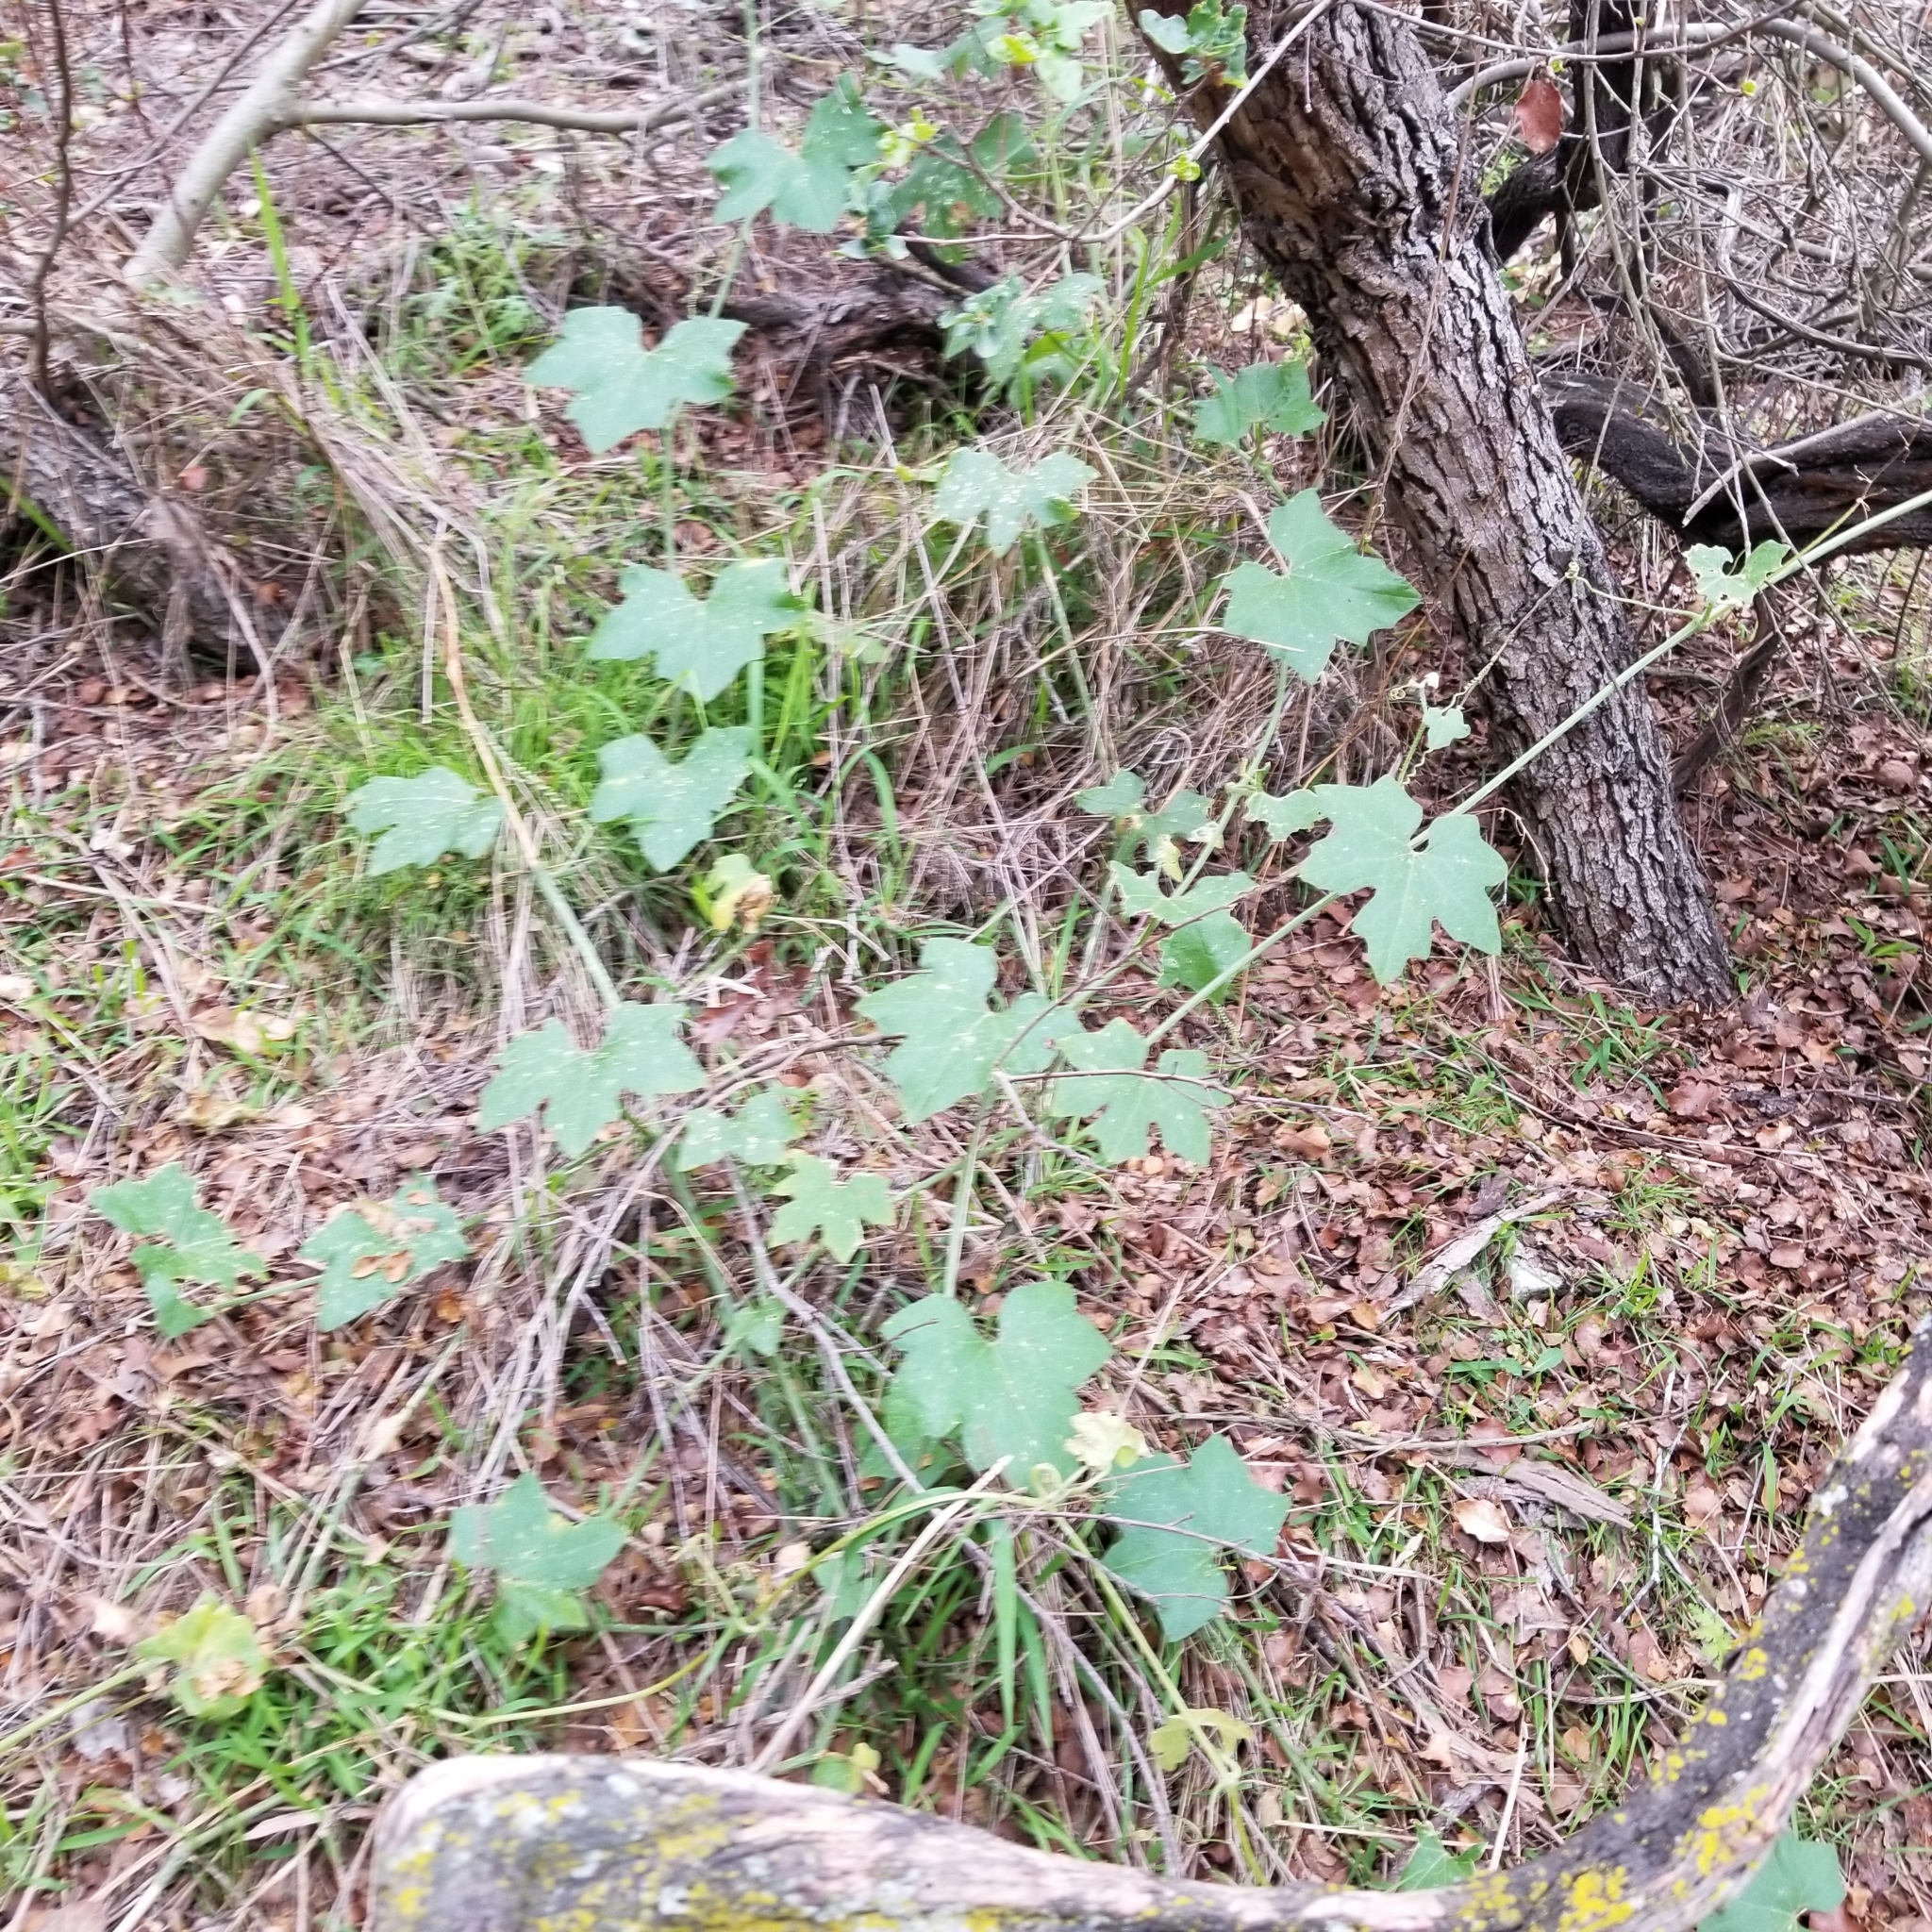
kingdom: Plantae
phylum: Tracheophyta
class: Magnoliopsida
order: Cucurbitales
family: Cucurbitaceae
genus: Marah
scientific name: Marah macrocarpa
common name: Cucamonga manroot
